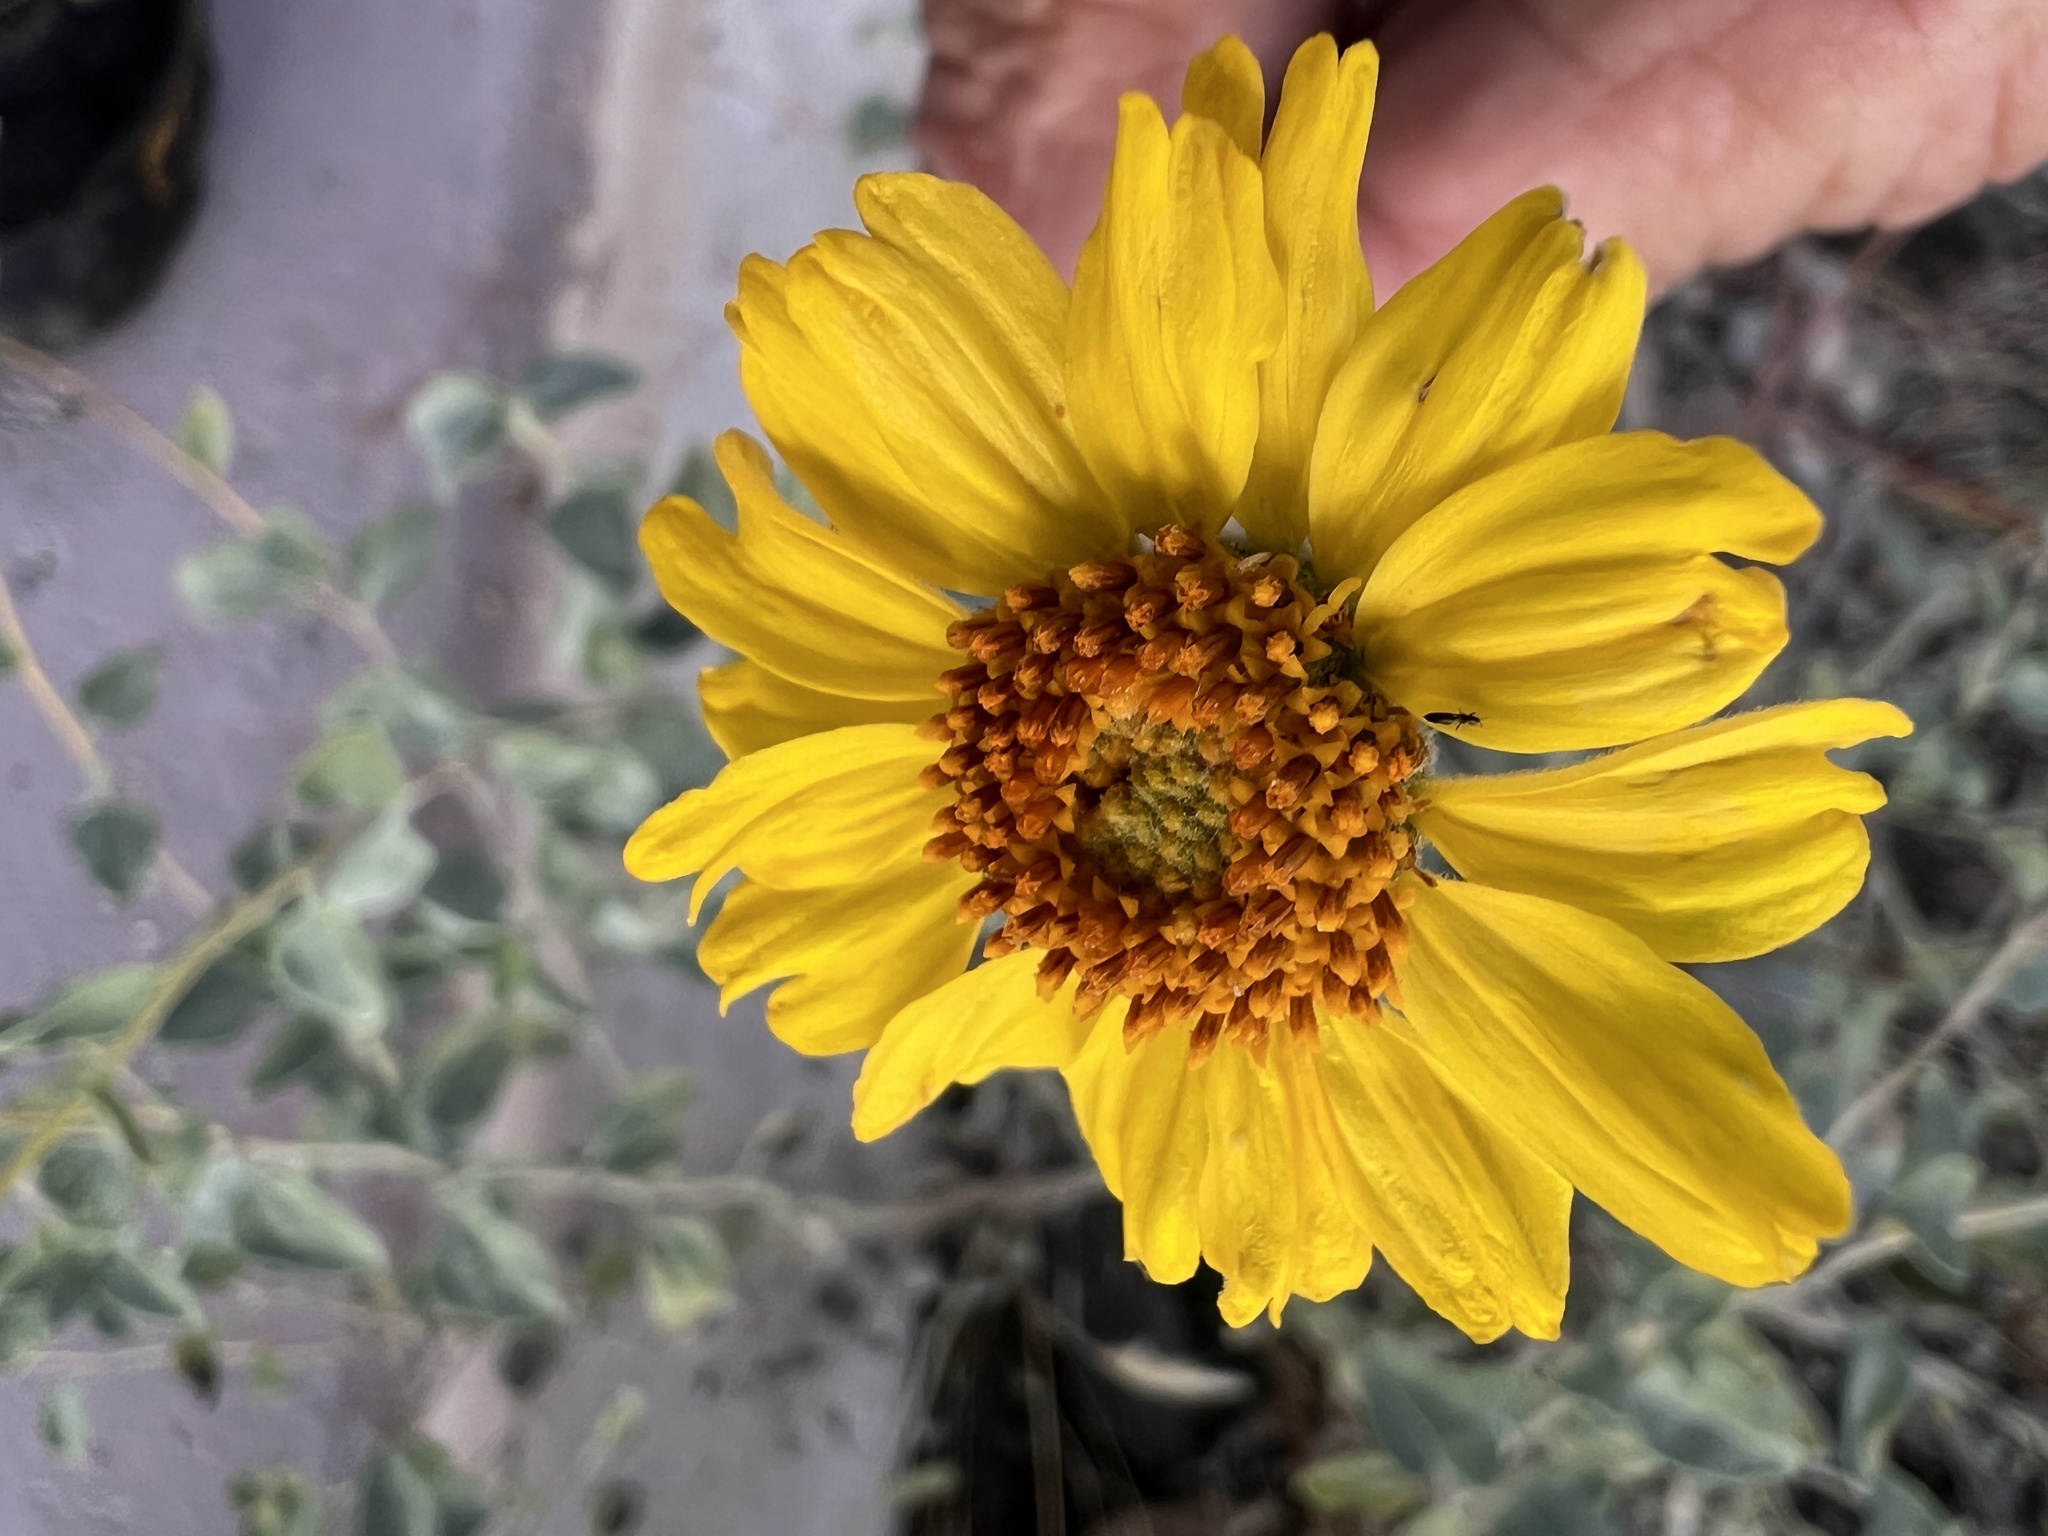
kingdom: Plantae
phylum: Tracheophyta
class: Magnoliopsida
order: Asterales
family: Asteraceae
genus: Encelia
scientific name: Encelia actoni
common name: Acton encelia
